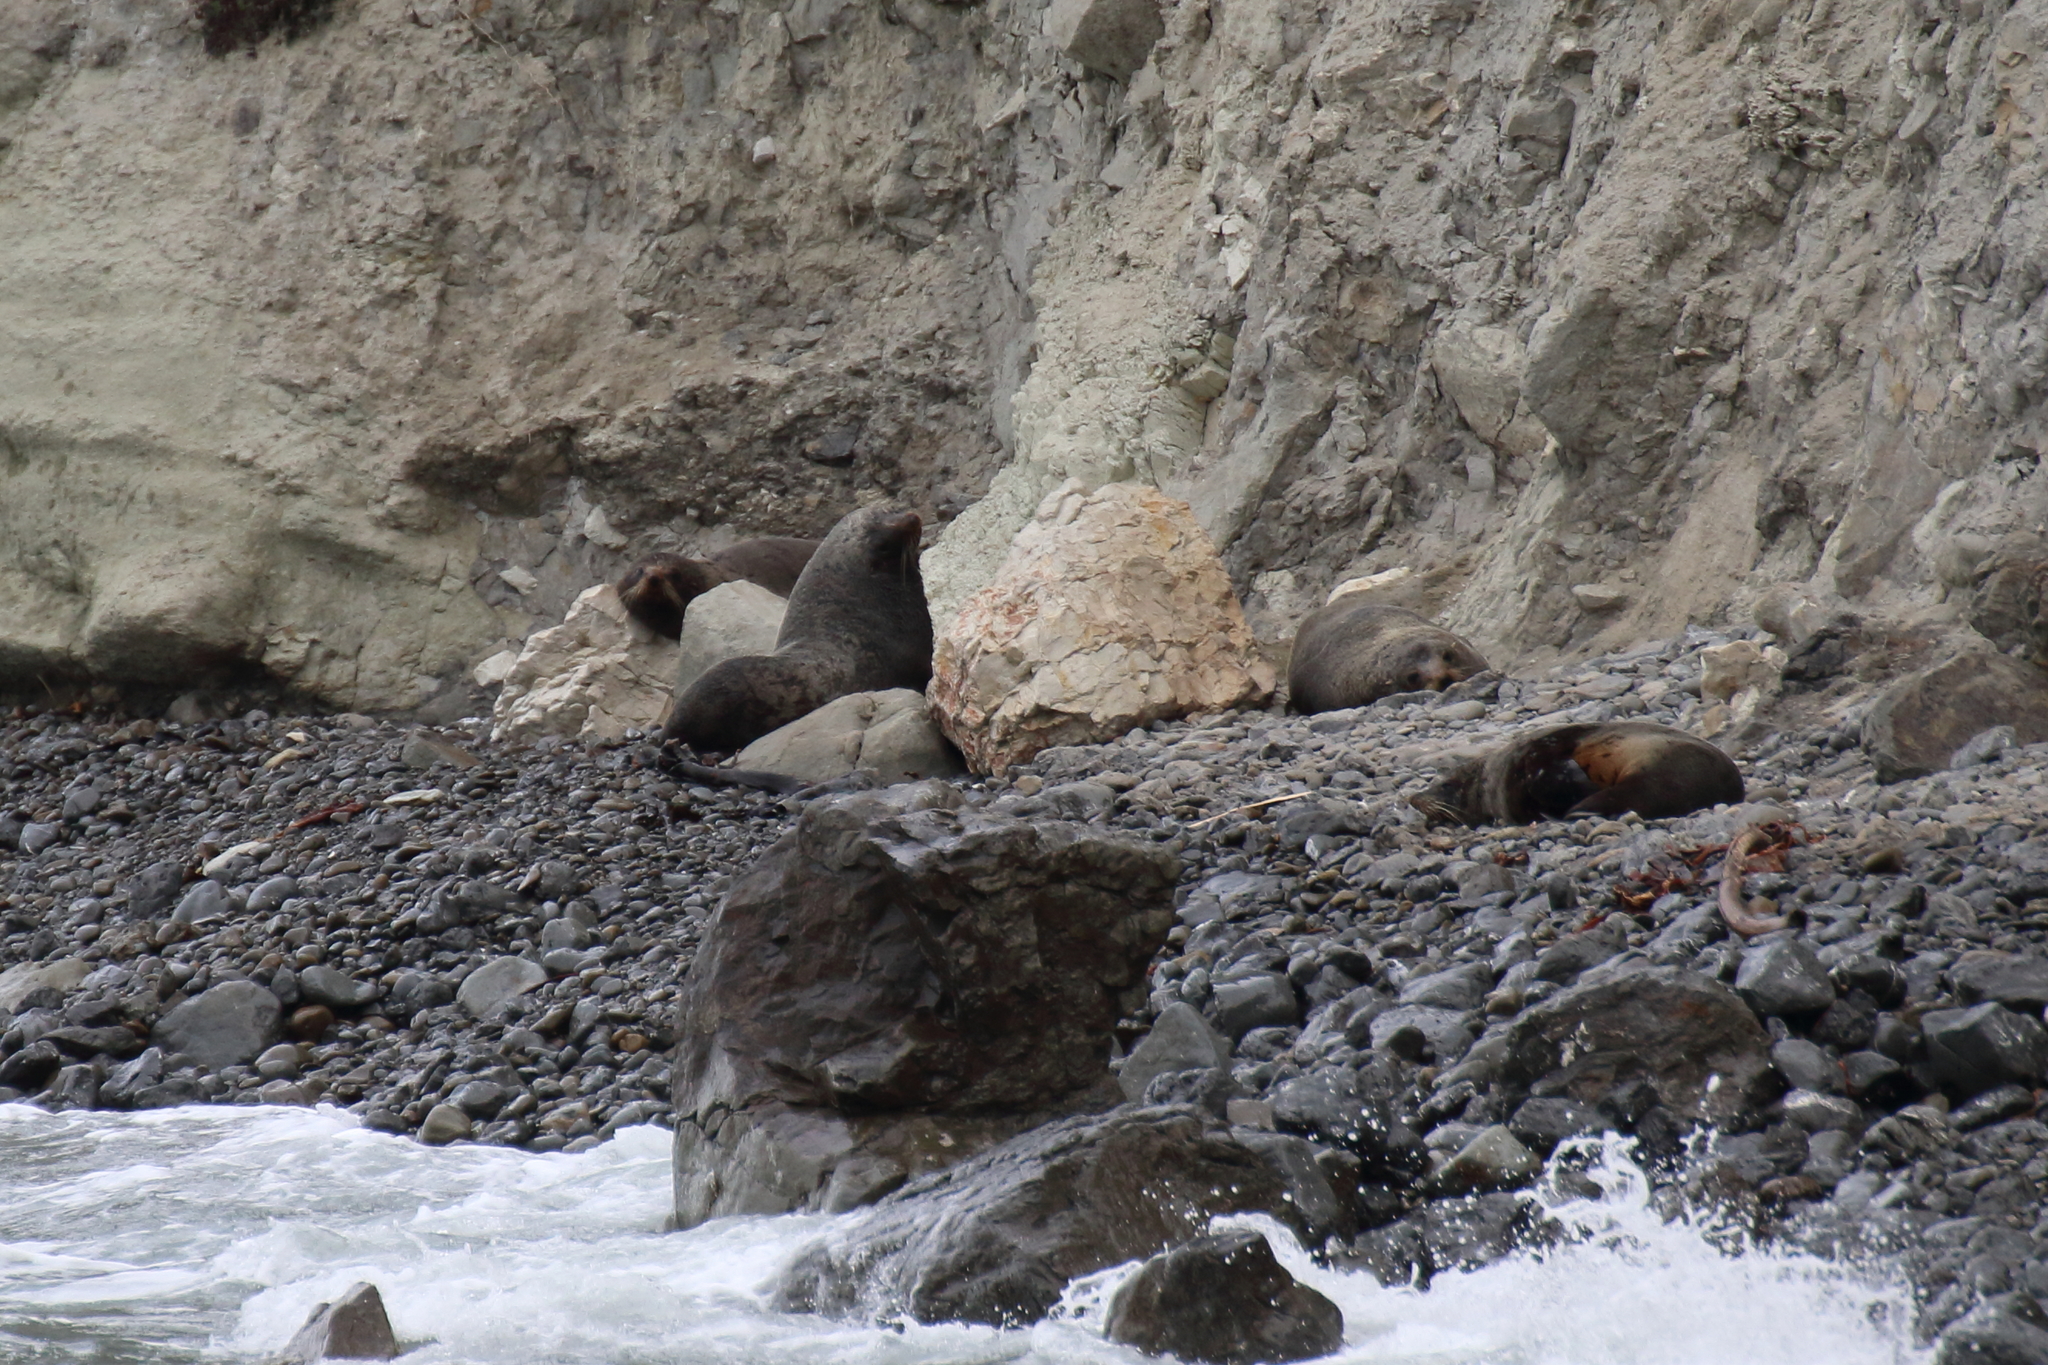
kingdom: Animalia
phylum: Chordata
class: Mammalia
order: Carnivora
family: Otariidae
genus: Arctocephalus
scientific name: Arctocephalus forsteri
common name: New zealand fur seal
